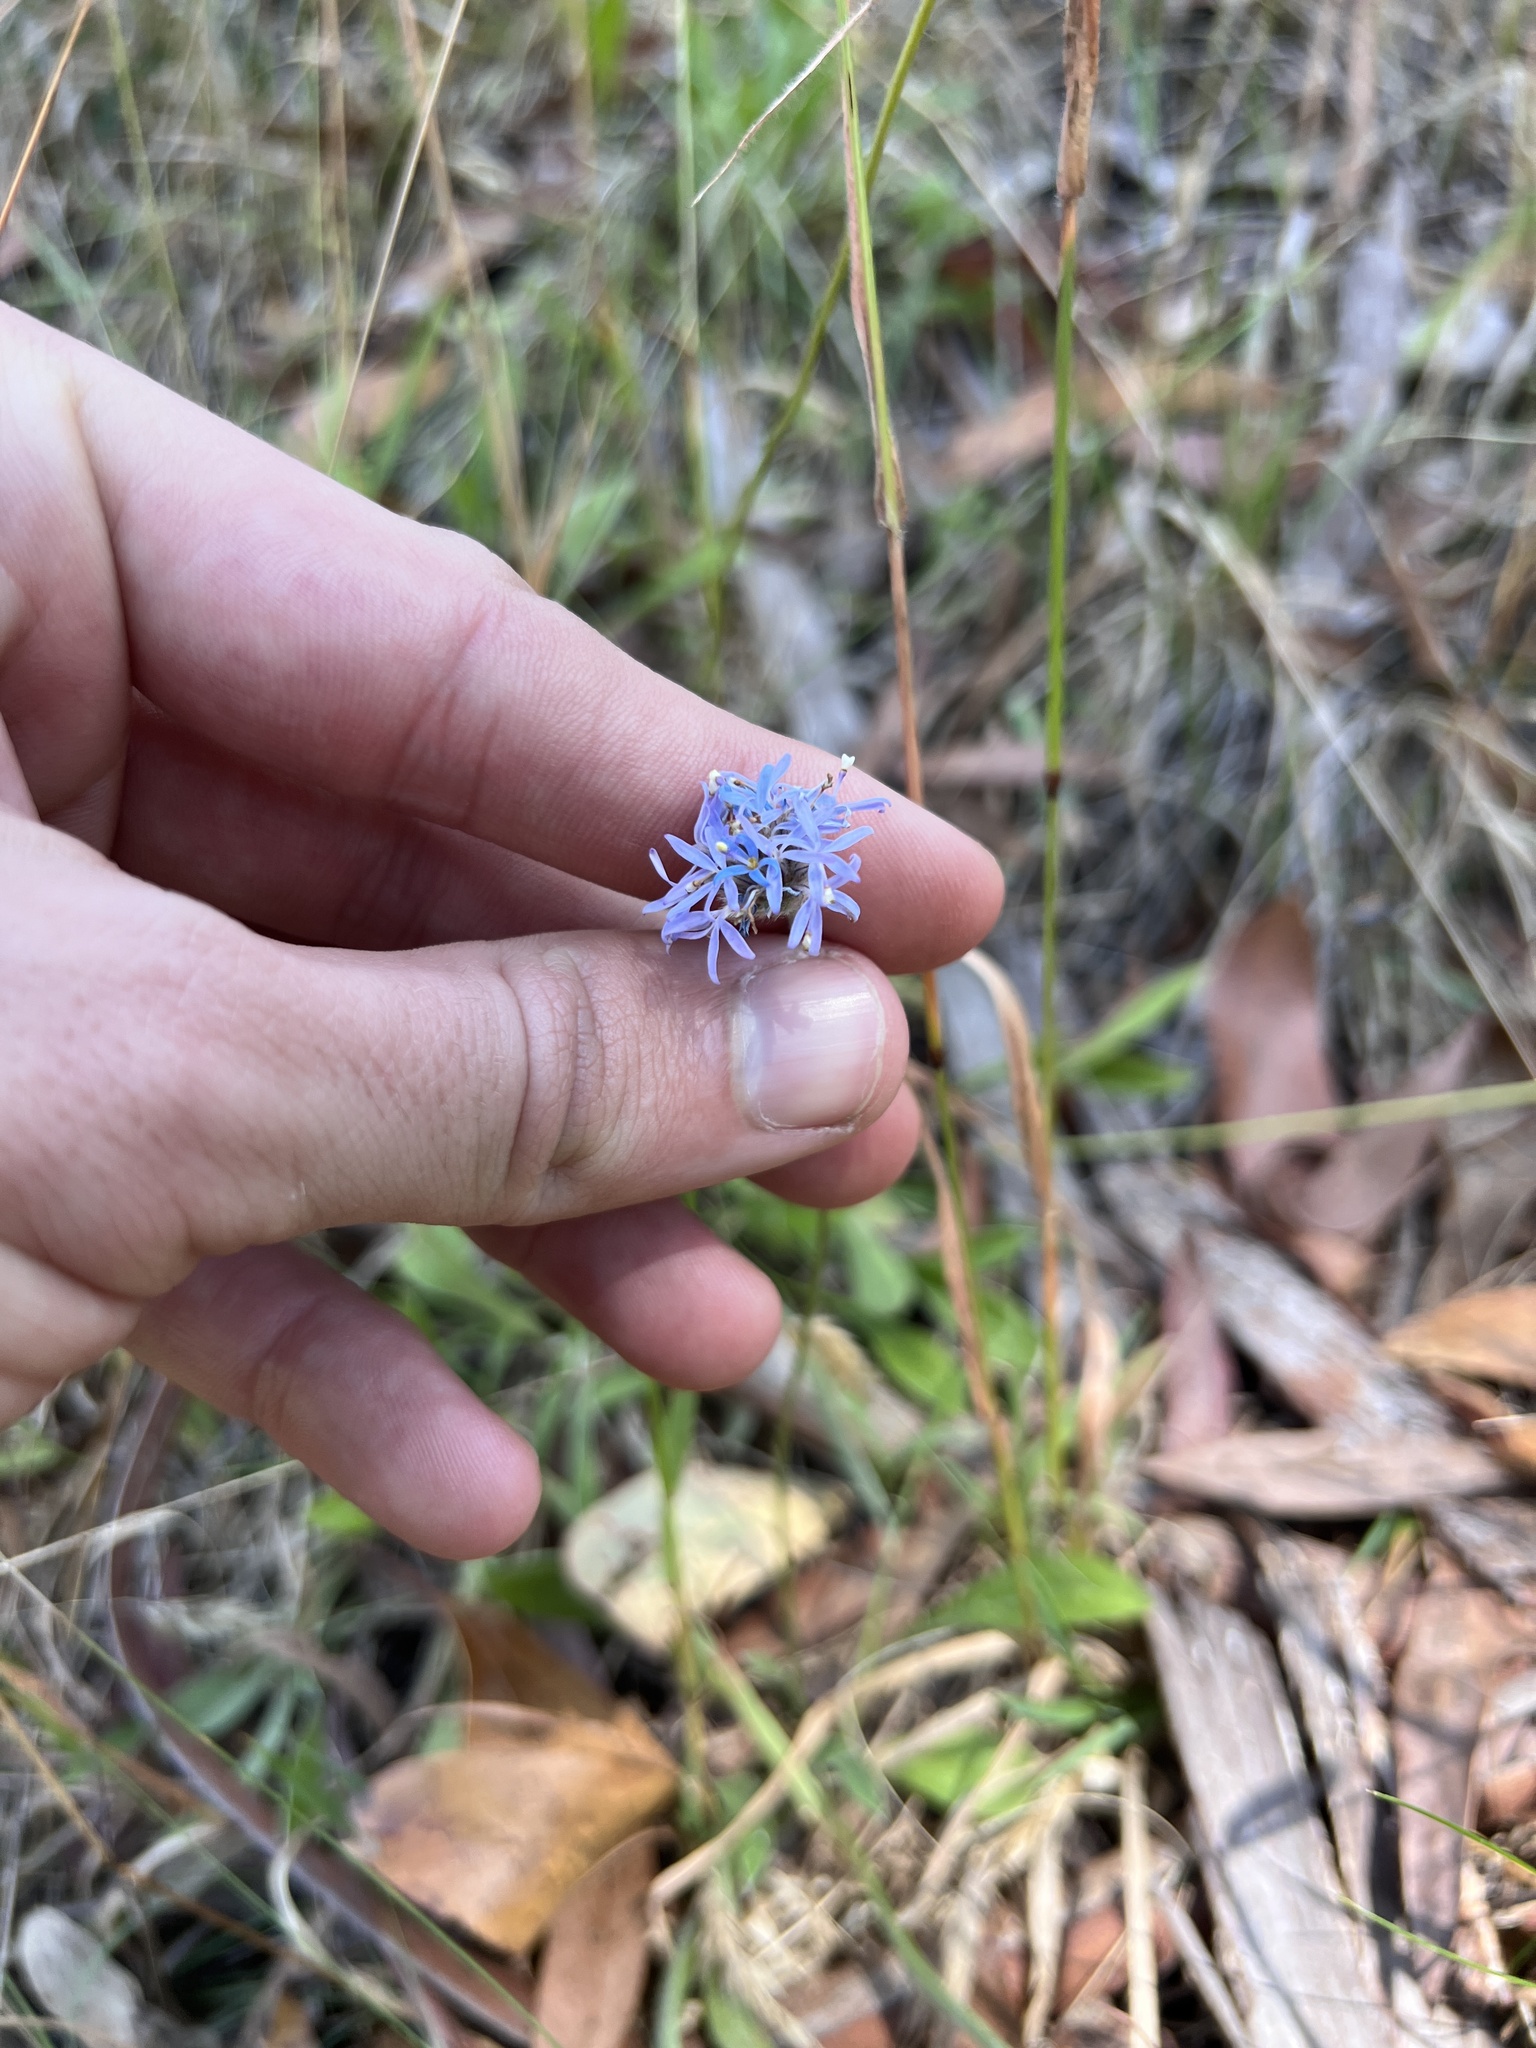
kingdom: Plantae
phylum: Tracheophyta
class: Magnoliopsida
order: Asterales
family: Goodeniaceae
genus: Brunonia
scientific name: Brunonia australis
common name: Blue pincushion
